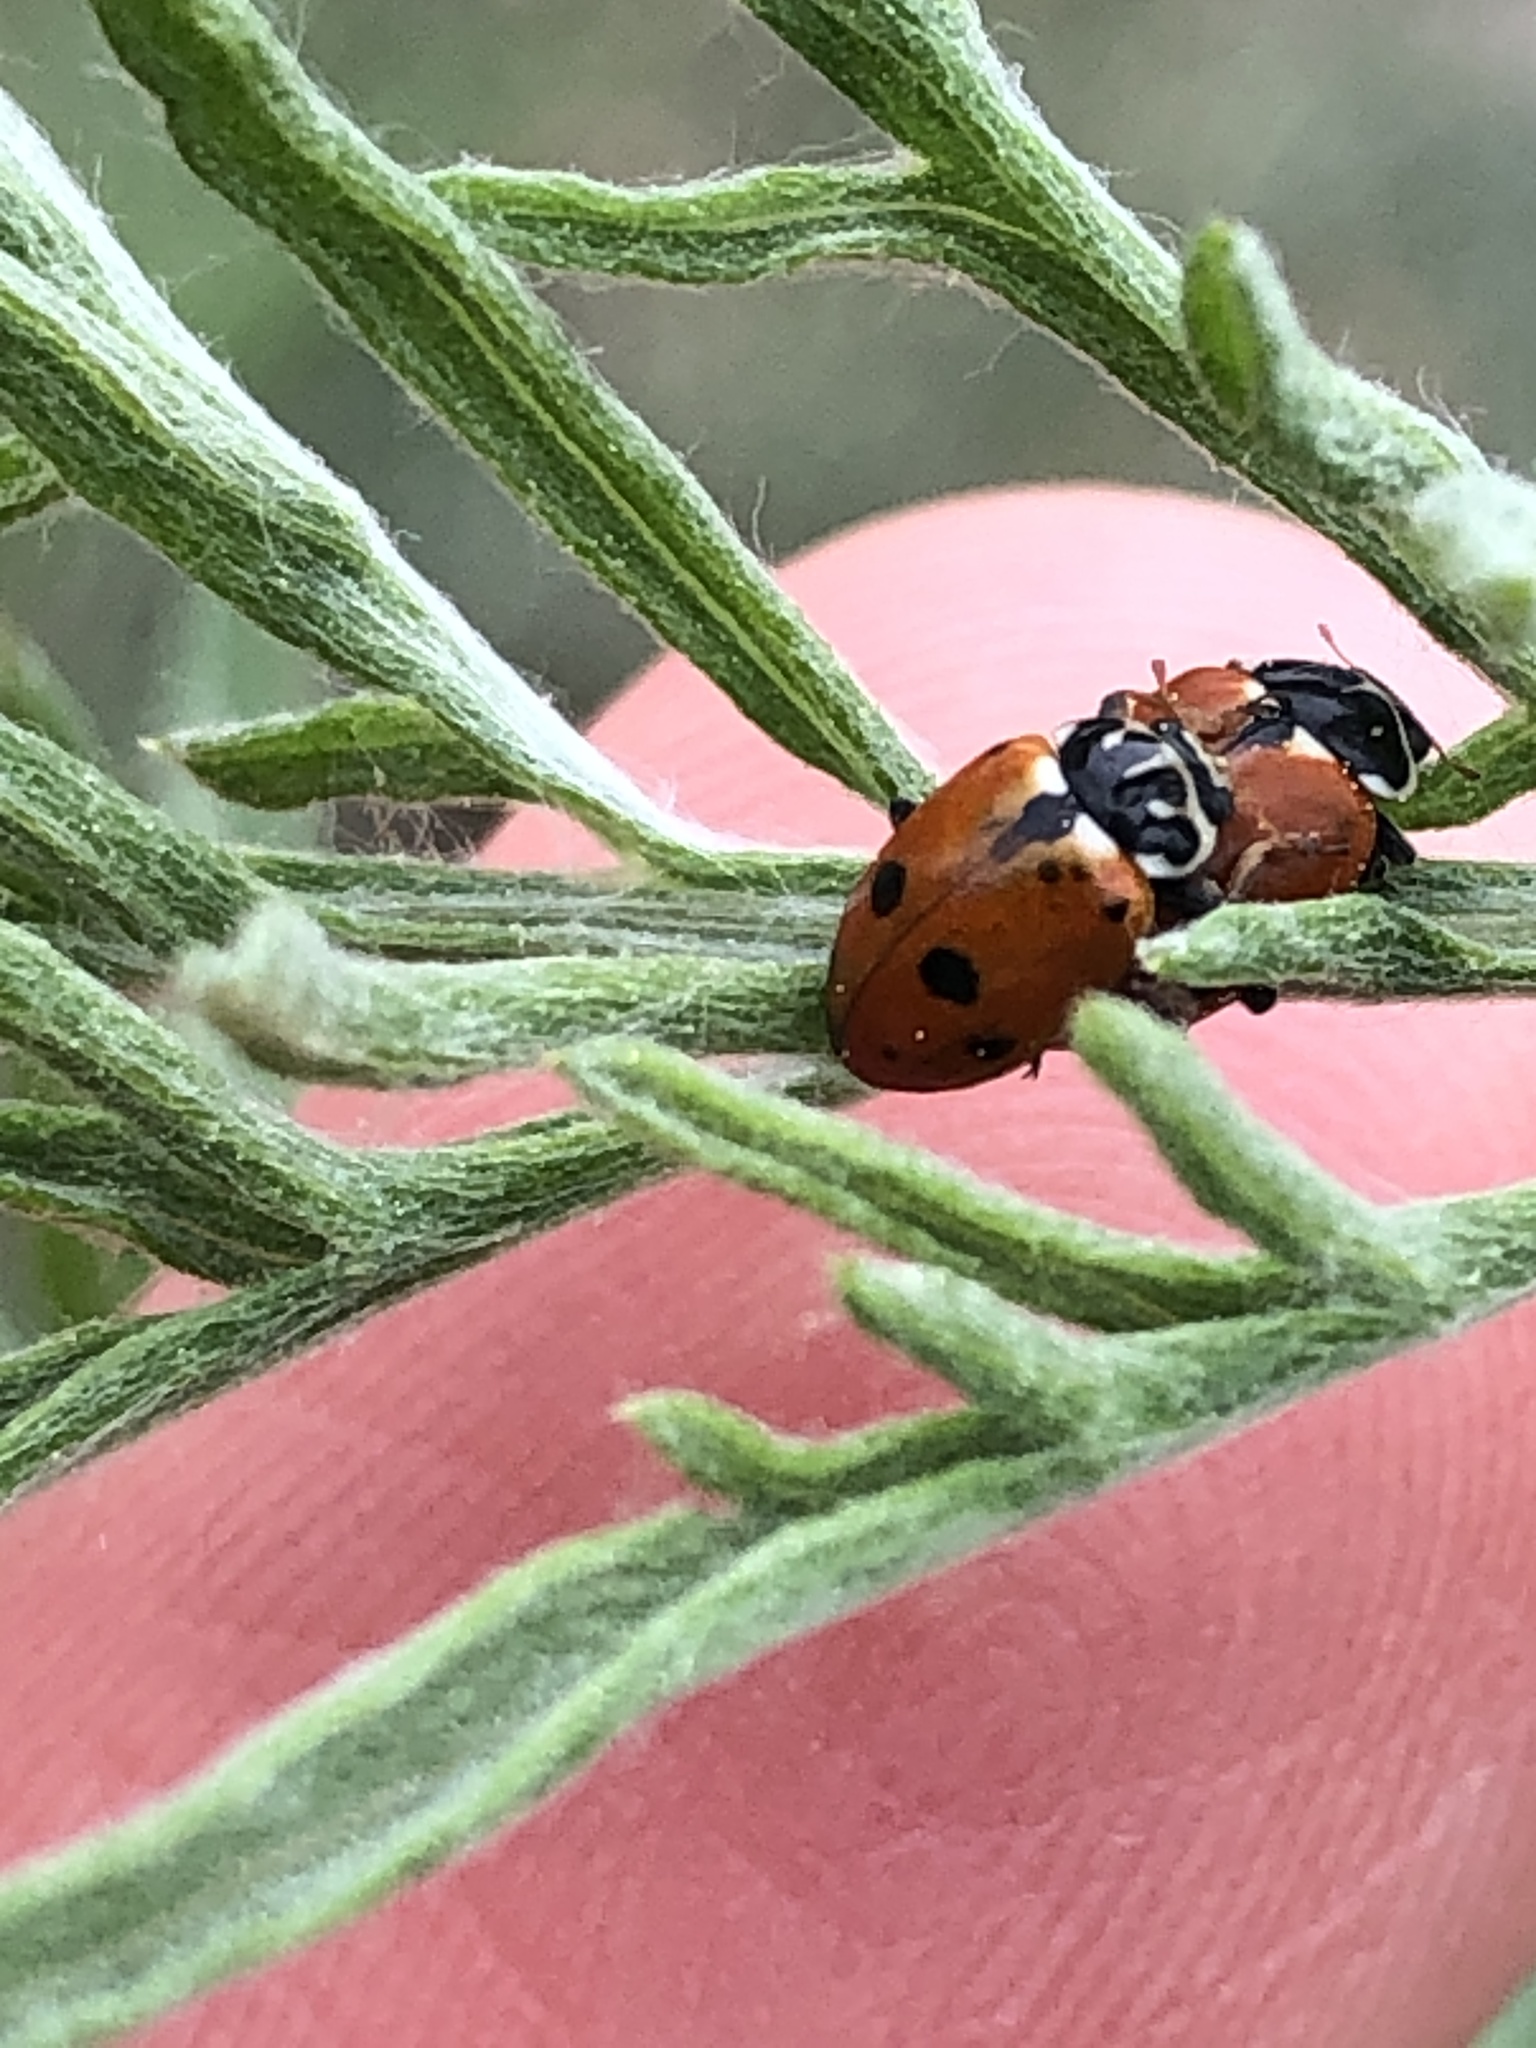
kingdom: Animalia
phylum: Arthropoda
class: Insecta
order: Coleoptera
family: Coccinellidae
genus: Hippodamia
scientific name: Hippodamia variegata
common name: Ladybird beetle
